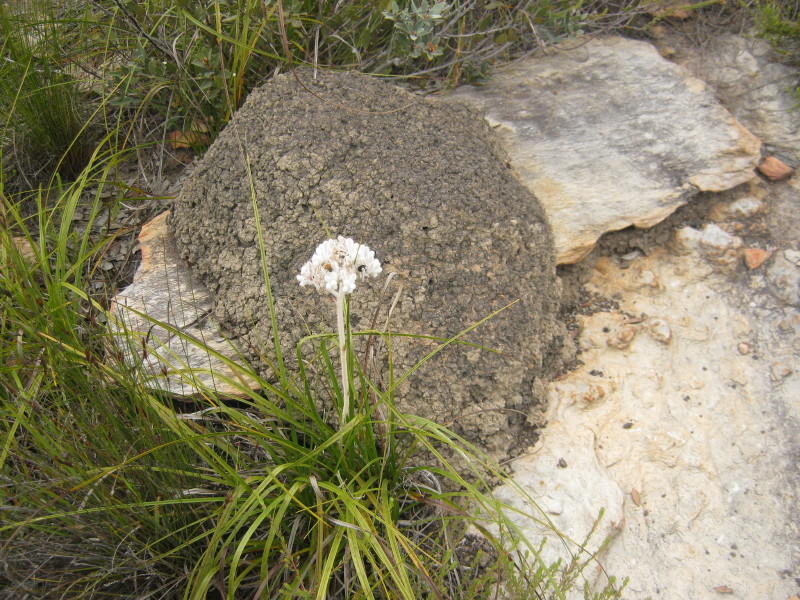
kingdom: Plantae
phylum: Tracheophyta
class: Liliopsida
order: Asparagales
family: Lanariaceae
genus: Lanaria
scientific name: Lanaria lanata
